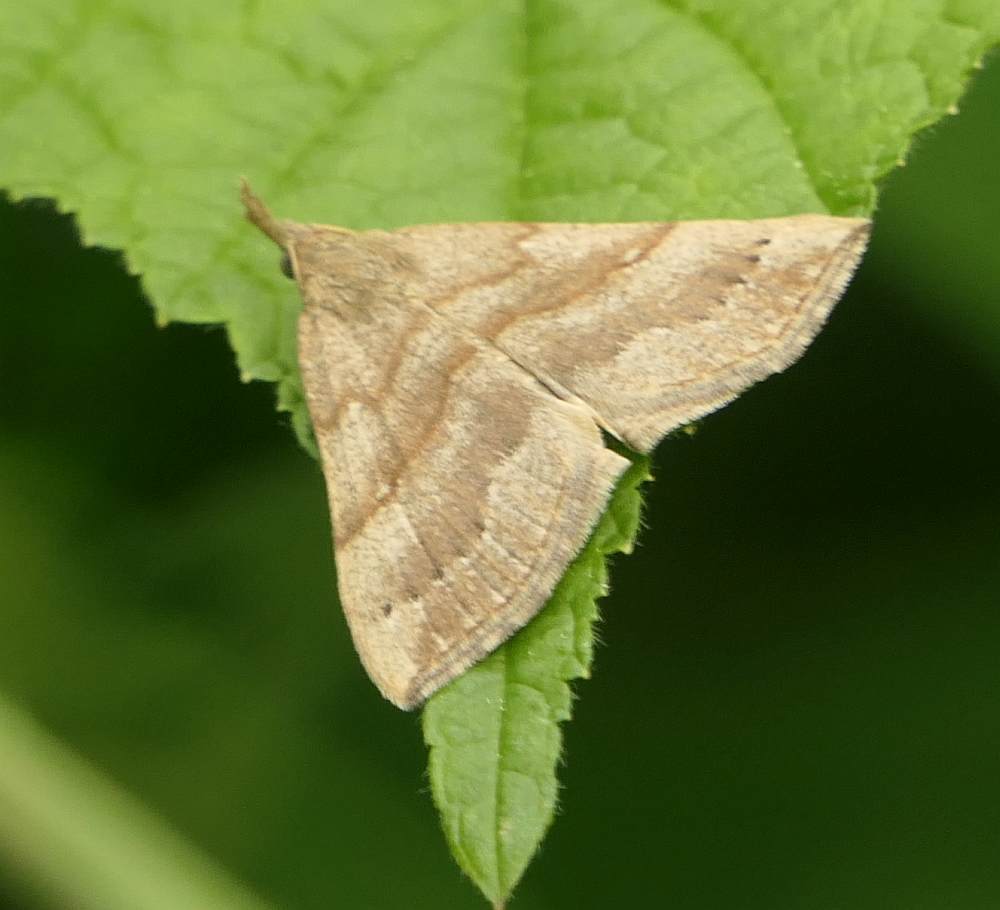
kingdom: Animalia
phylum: Arthropoda
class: Insecta
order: Lepidoptera
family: Erebidae
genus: Hypena
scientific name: Hypena atomaria
